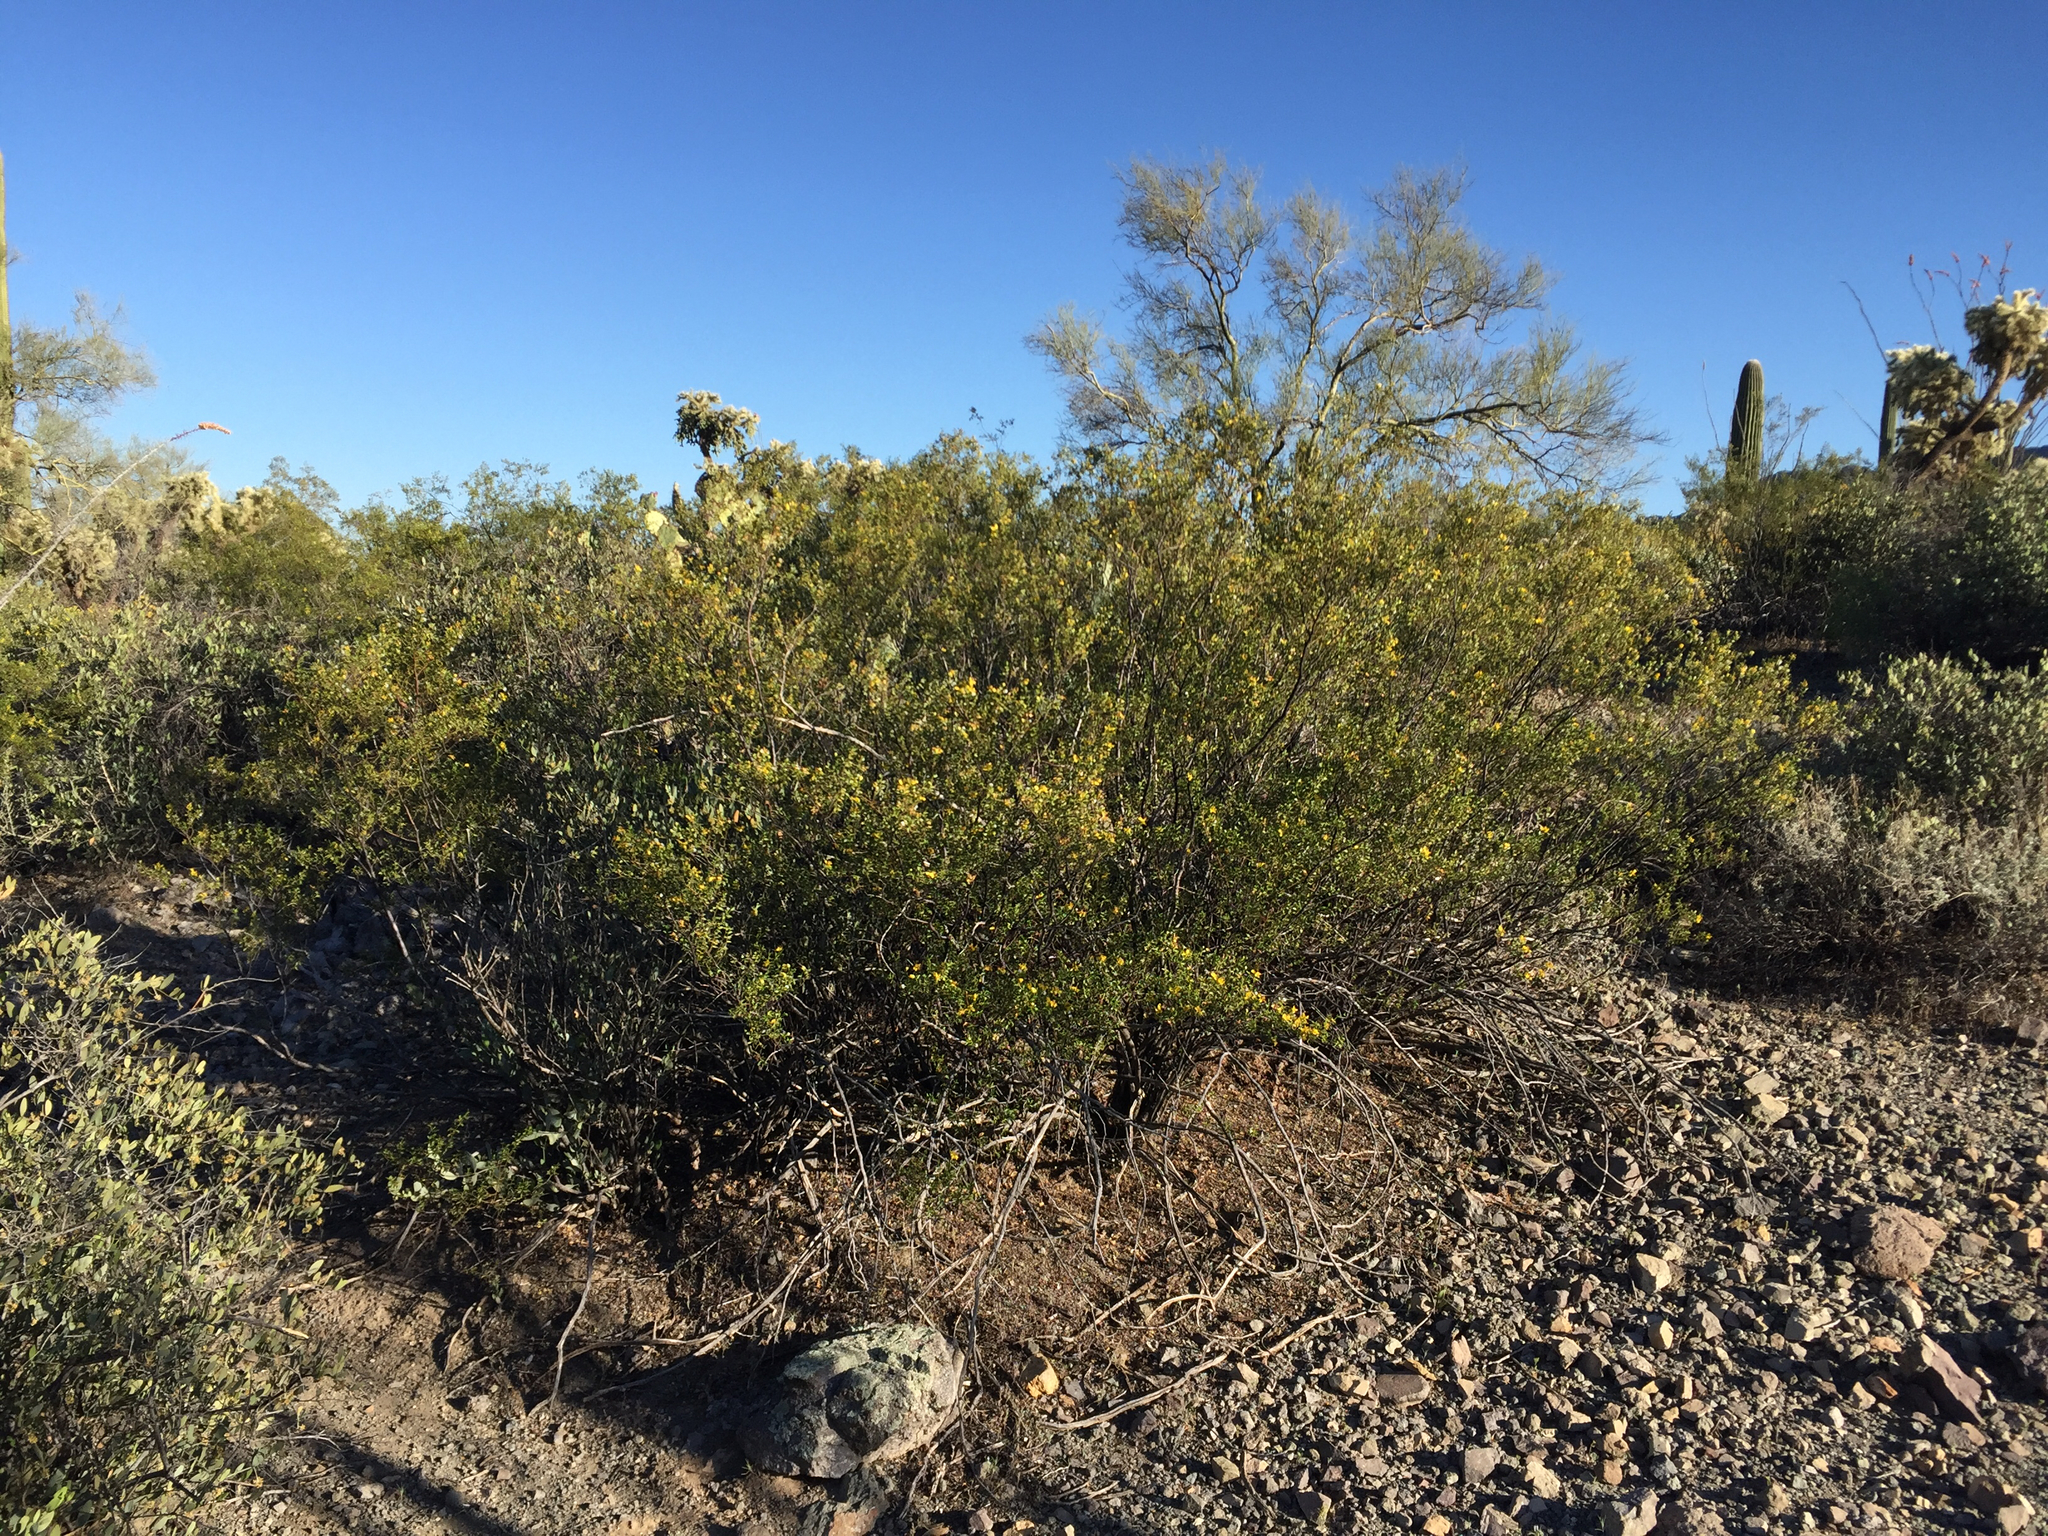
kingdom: Plantae
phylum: Tracheophyta
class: Magnoliopsida
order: Zygophyllales
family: Zygophyllaceae
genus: Larrea
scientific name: Larrea tridentata
